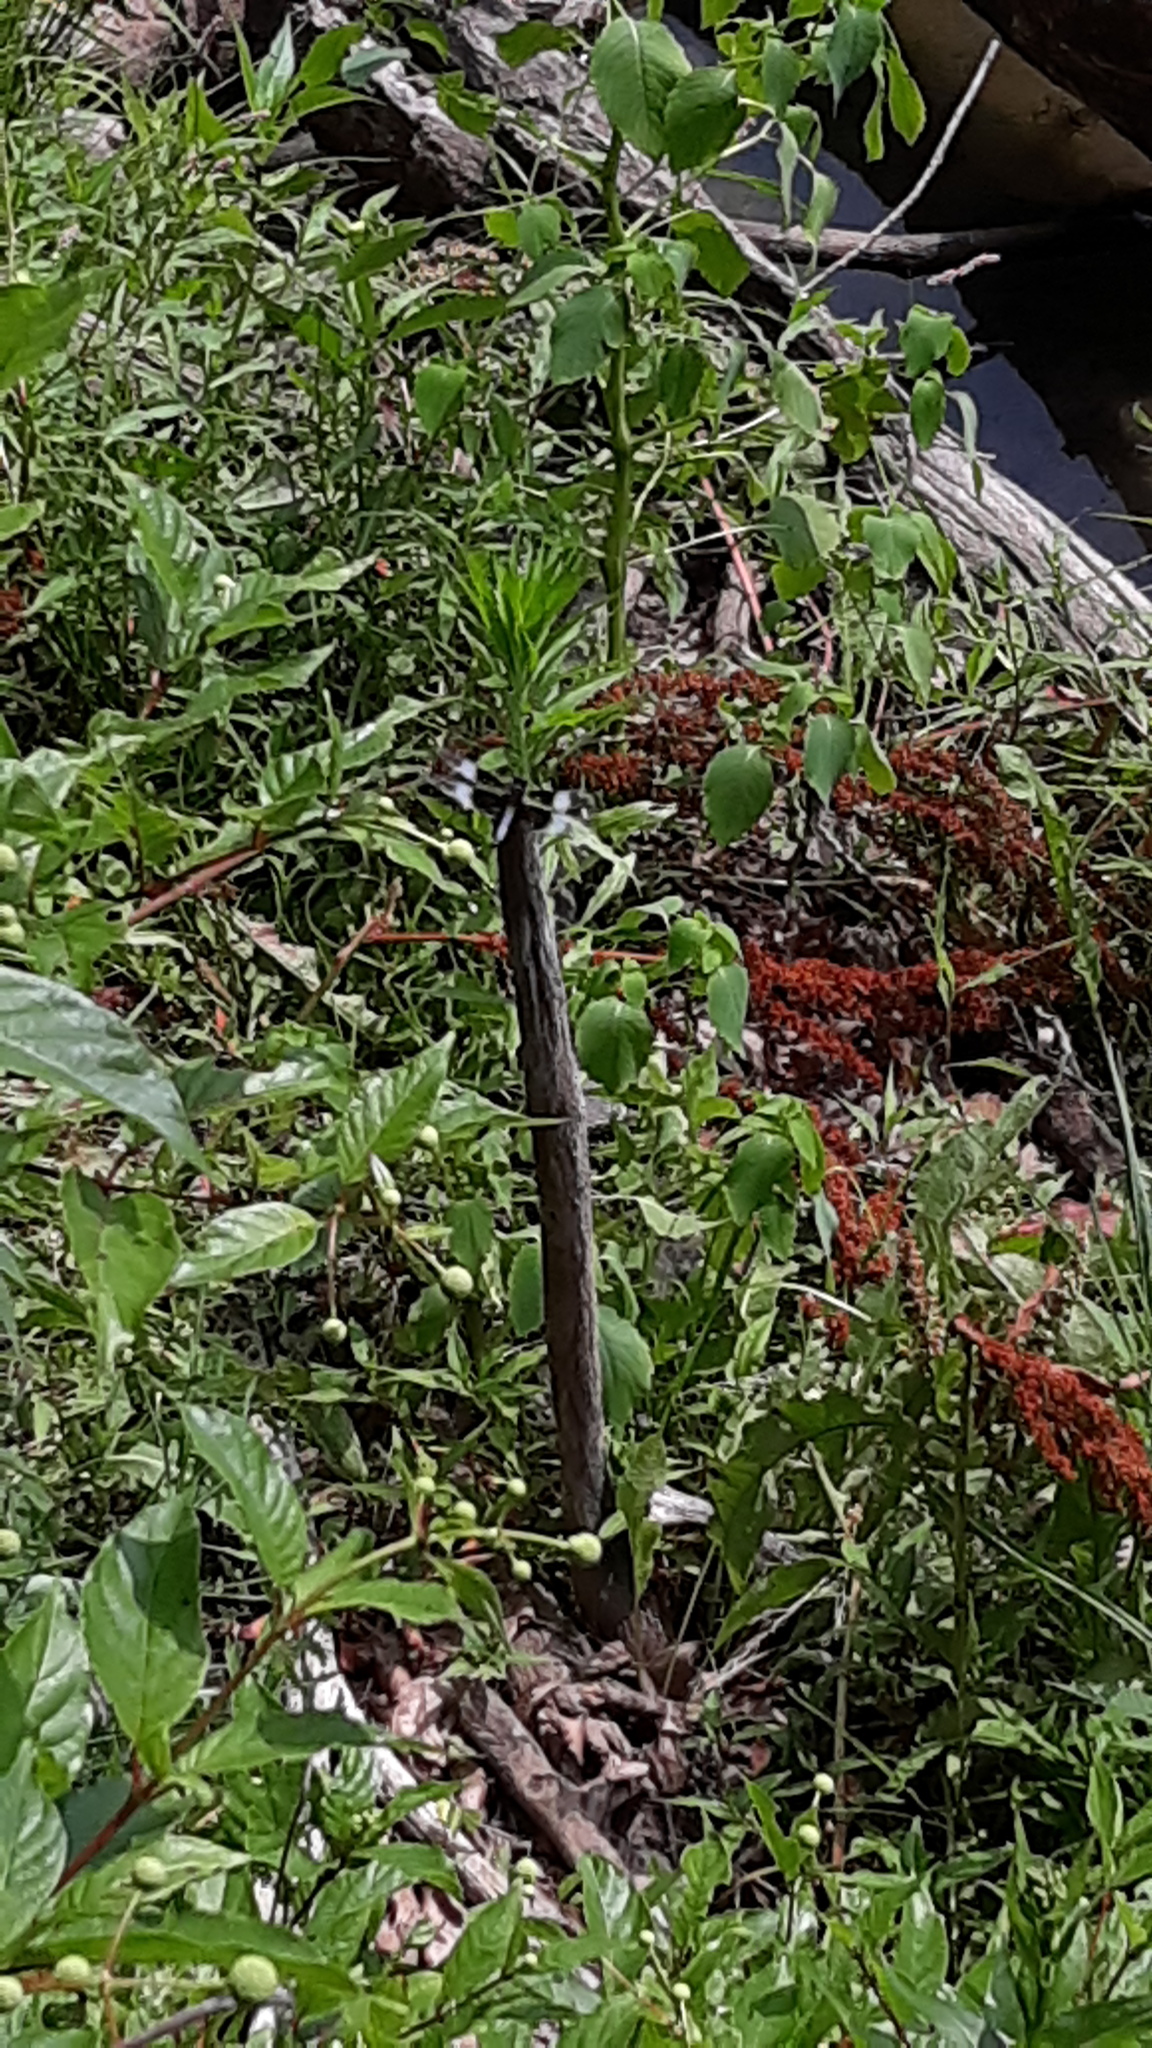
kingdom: Animalia
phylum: Arthropoda
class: Insecta
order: Odonata
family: Libellulidae
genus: Libellula
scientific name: Libellula luctuosa
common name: Widow skimmer
